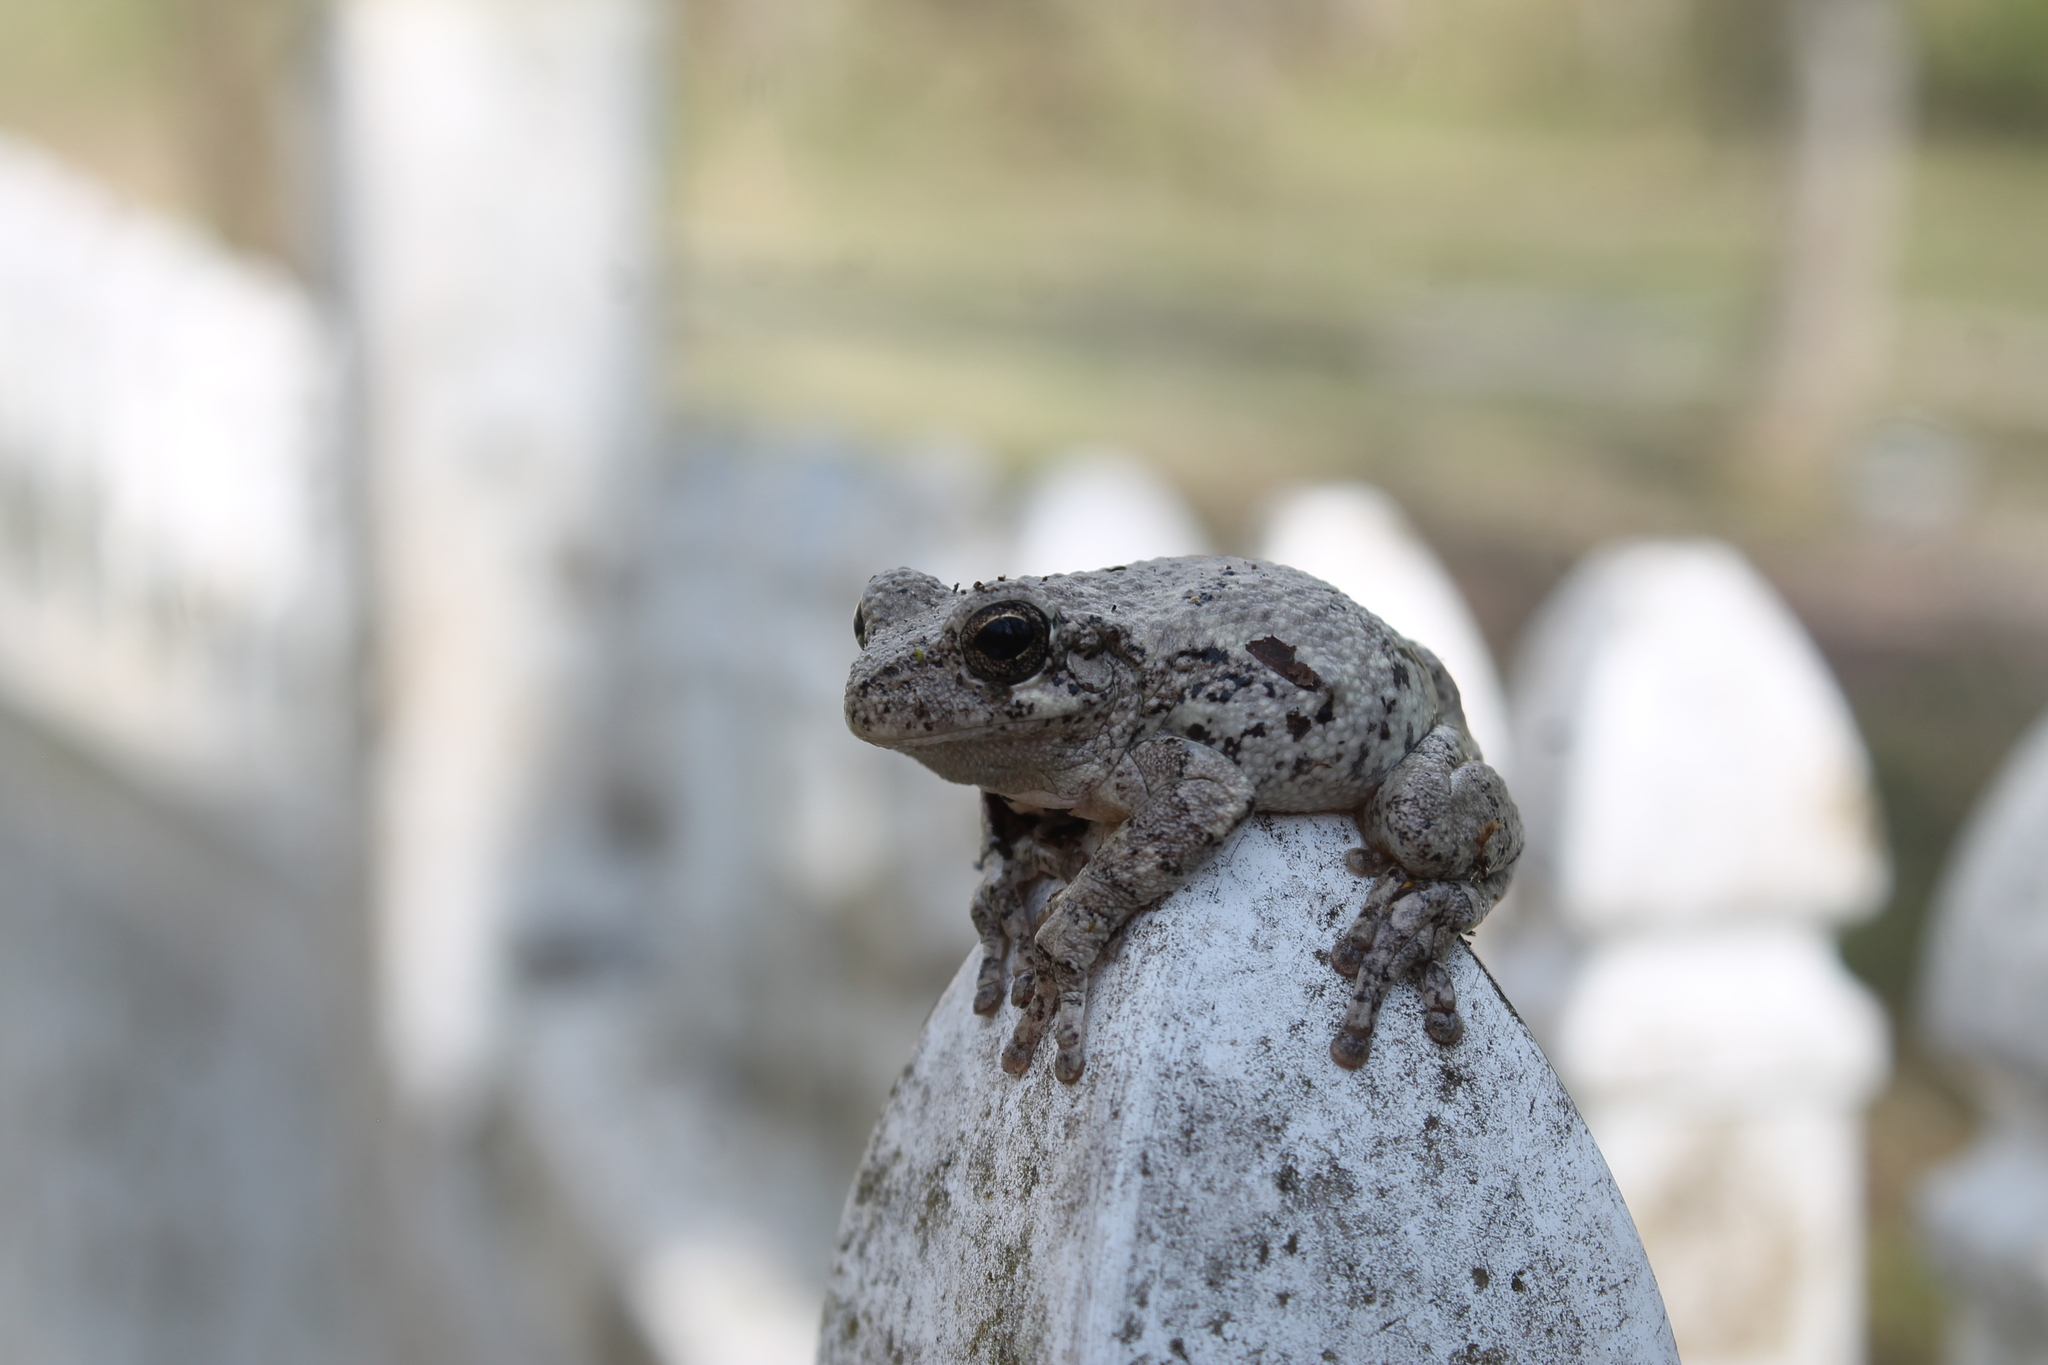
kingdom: Animalia
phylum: Chordata
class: Amphibia
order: Anura
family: Hylidae
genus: Dryophytes
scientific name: Dryophytes chrysoscelis
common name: Cope's gray treefrog
